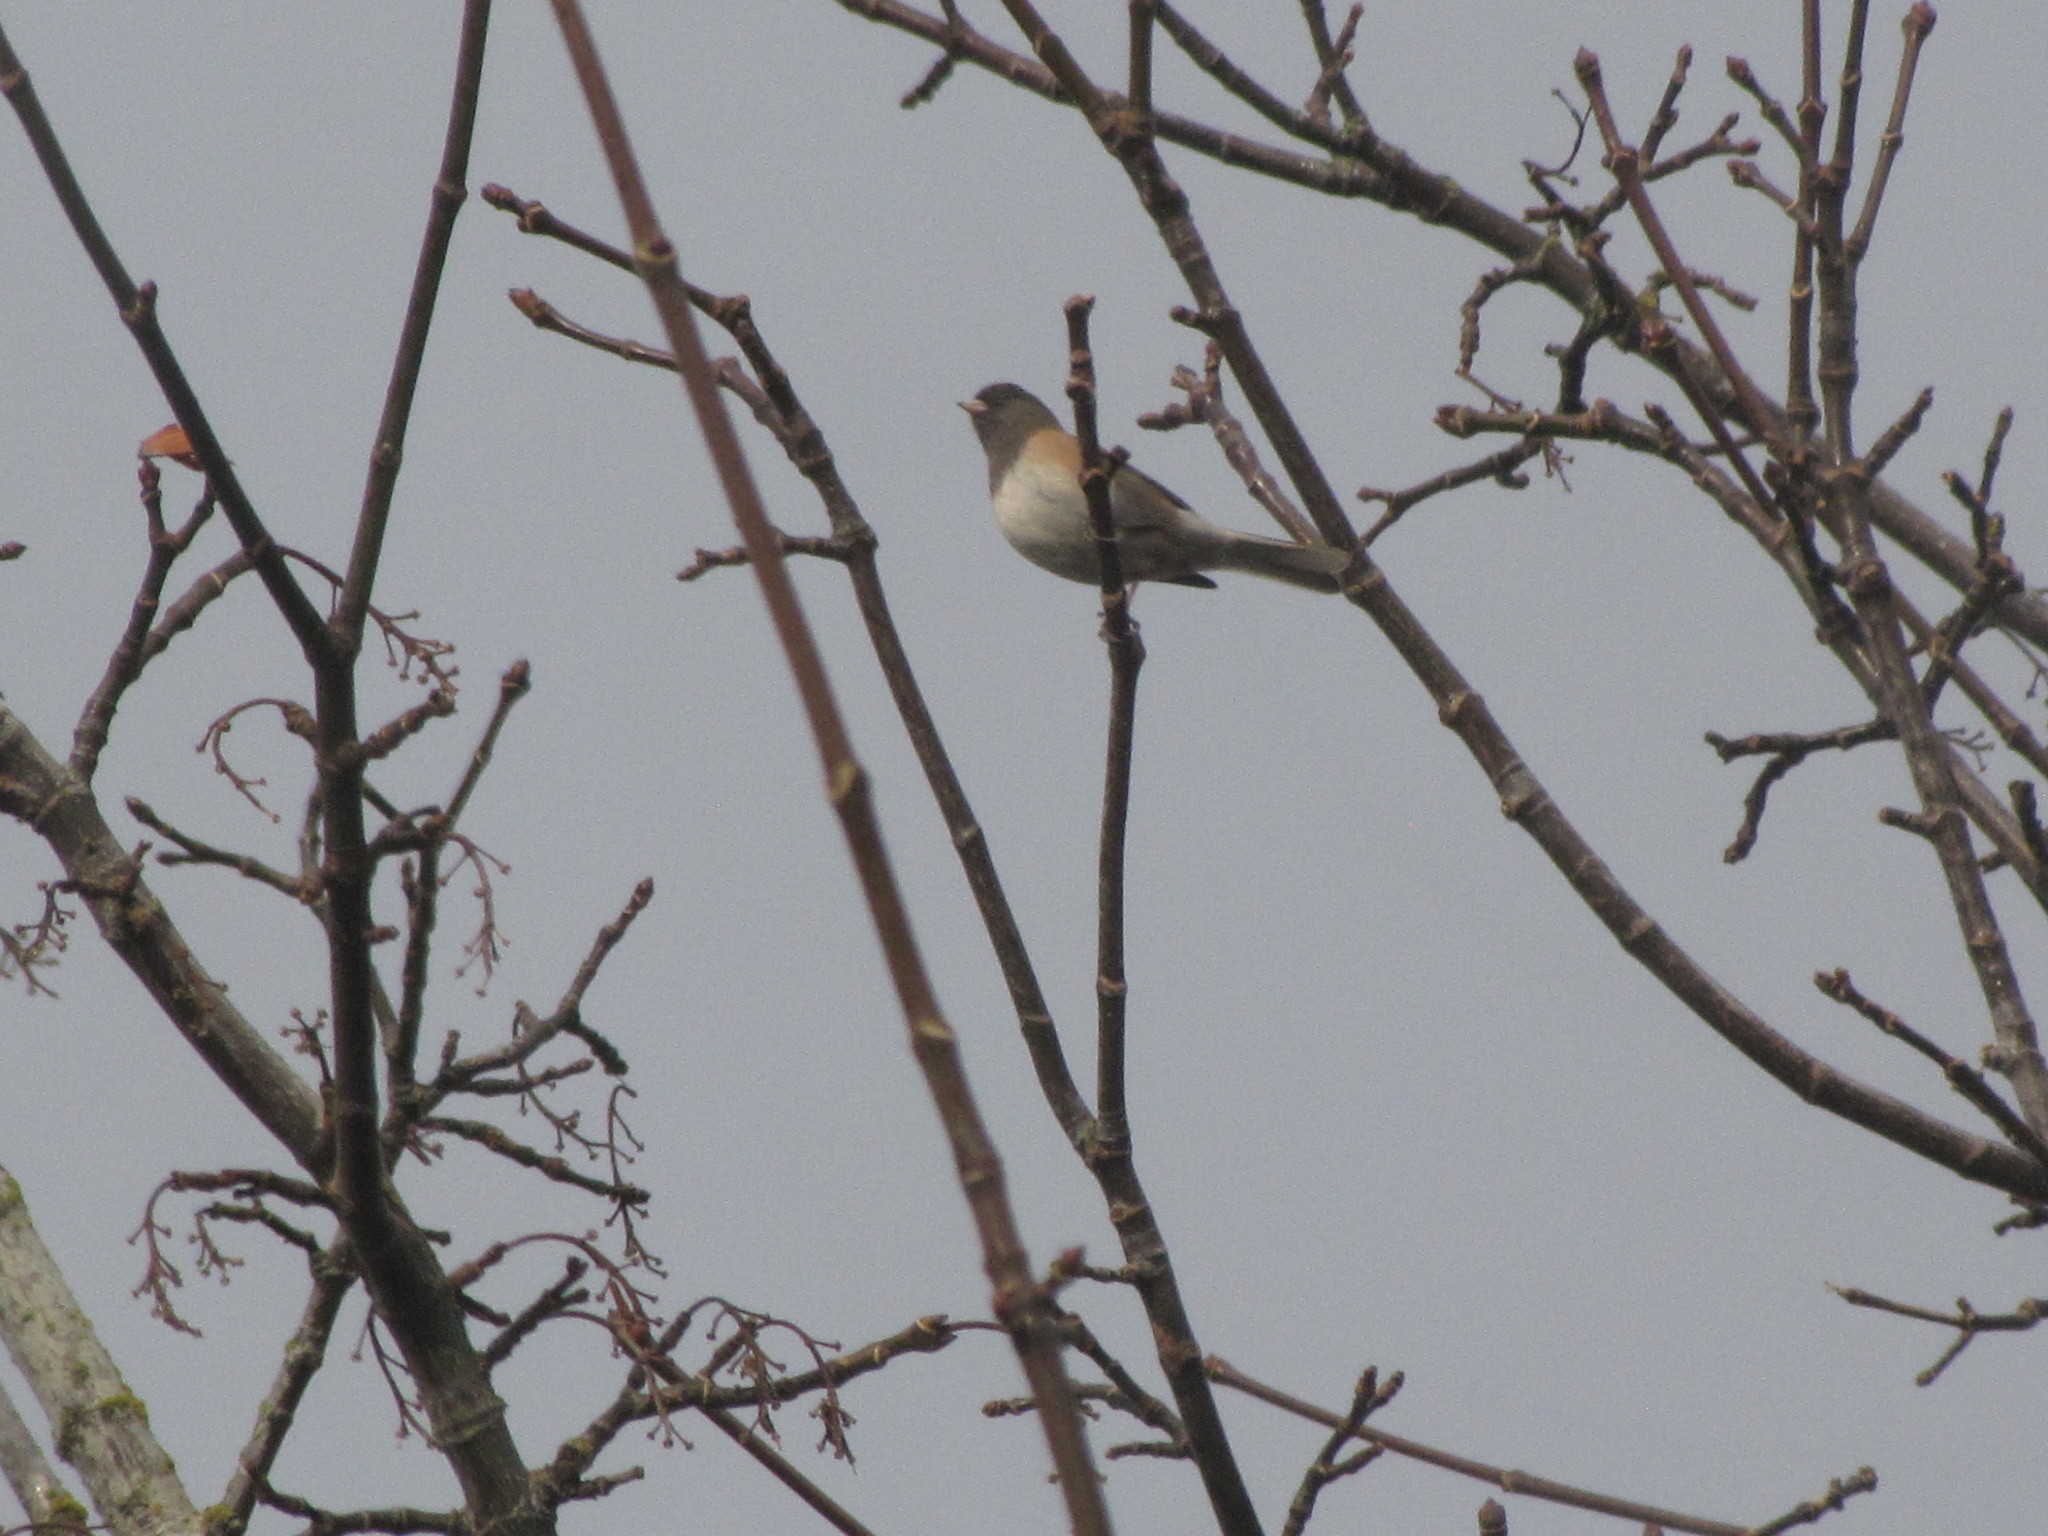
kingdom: Animalia
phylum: Chordata
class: Aves
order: Passeriformes
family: Passerellidae
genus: Junco
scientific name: Junco hyemalis
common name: Dark-eyed junco
